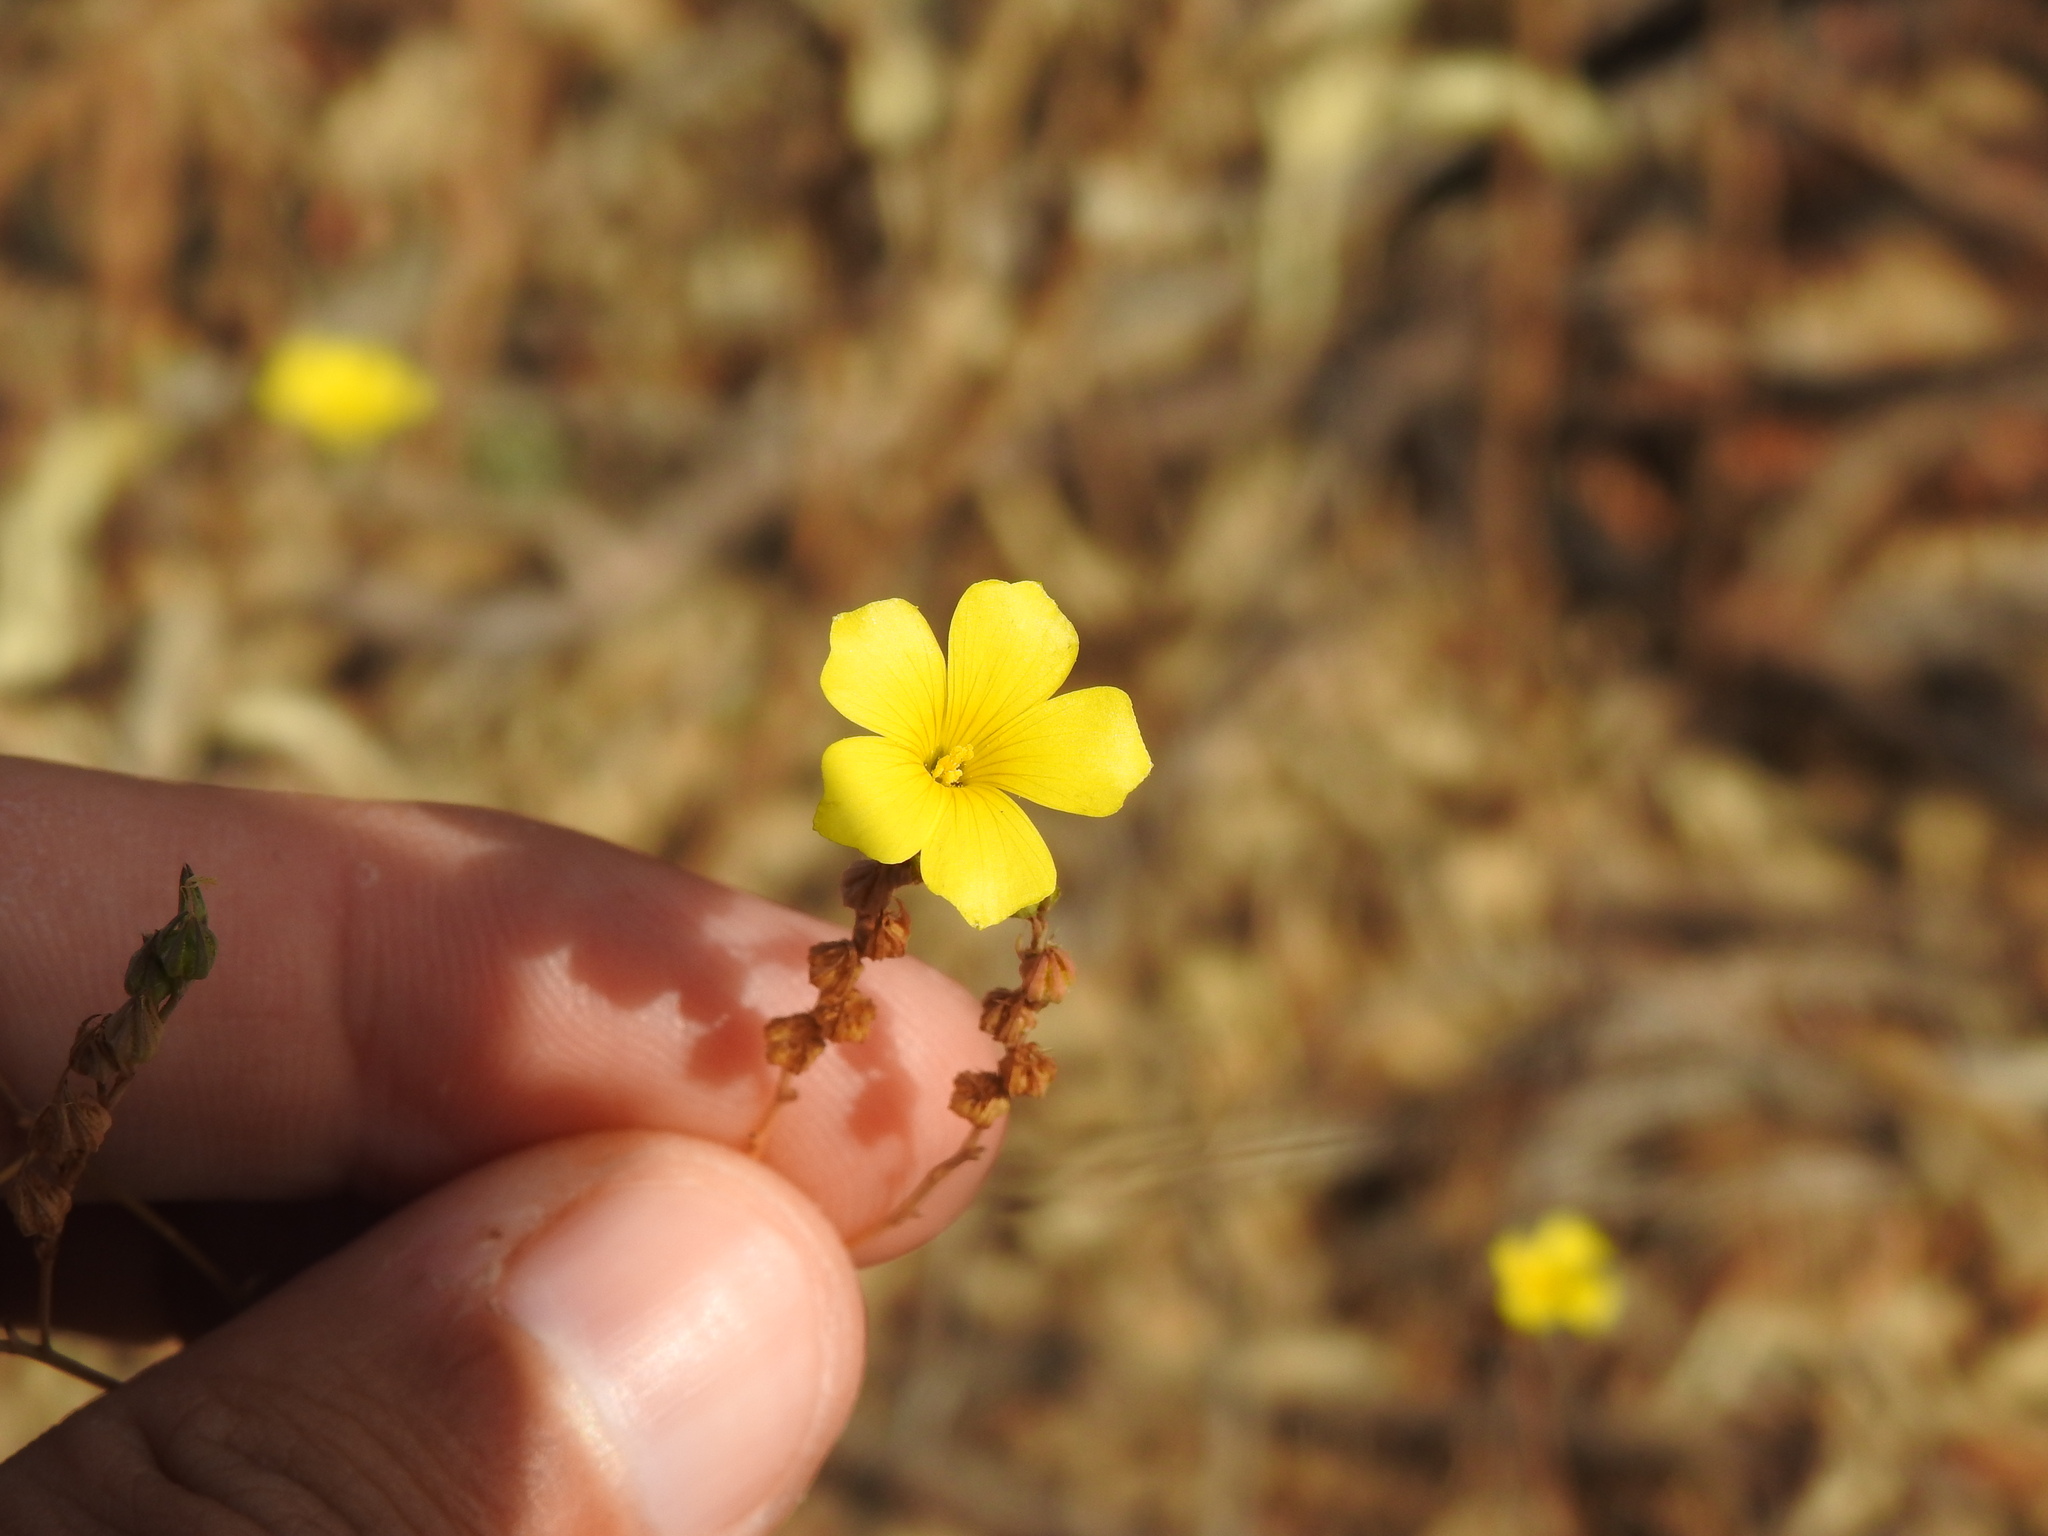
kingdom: Plantae
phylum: Tracheophyta
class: Magnoliopsida
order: Malpighiales
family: Linaceae
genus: Linum
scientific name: Linum tenue
